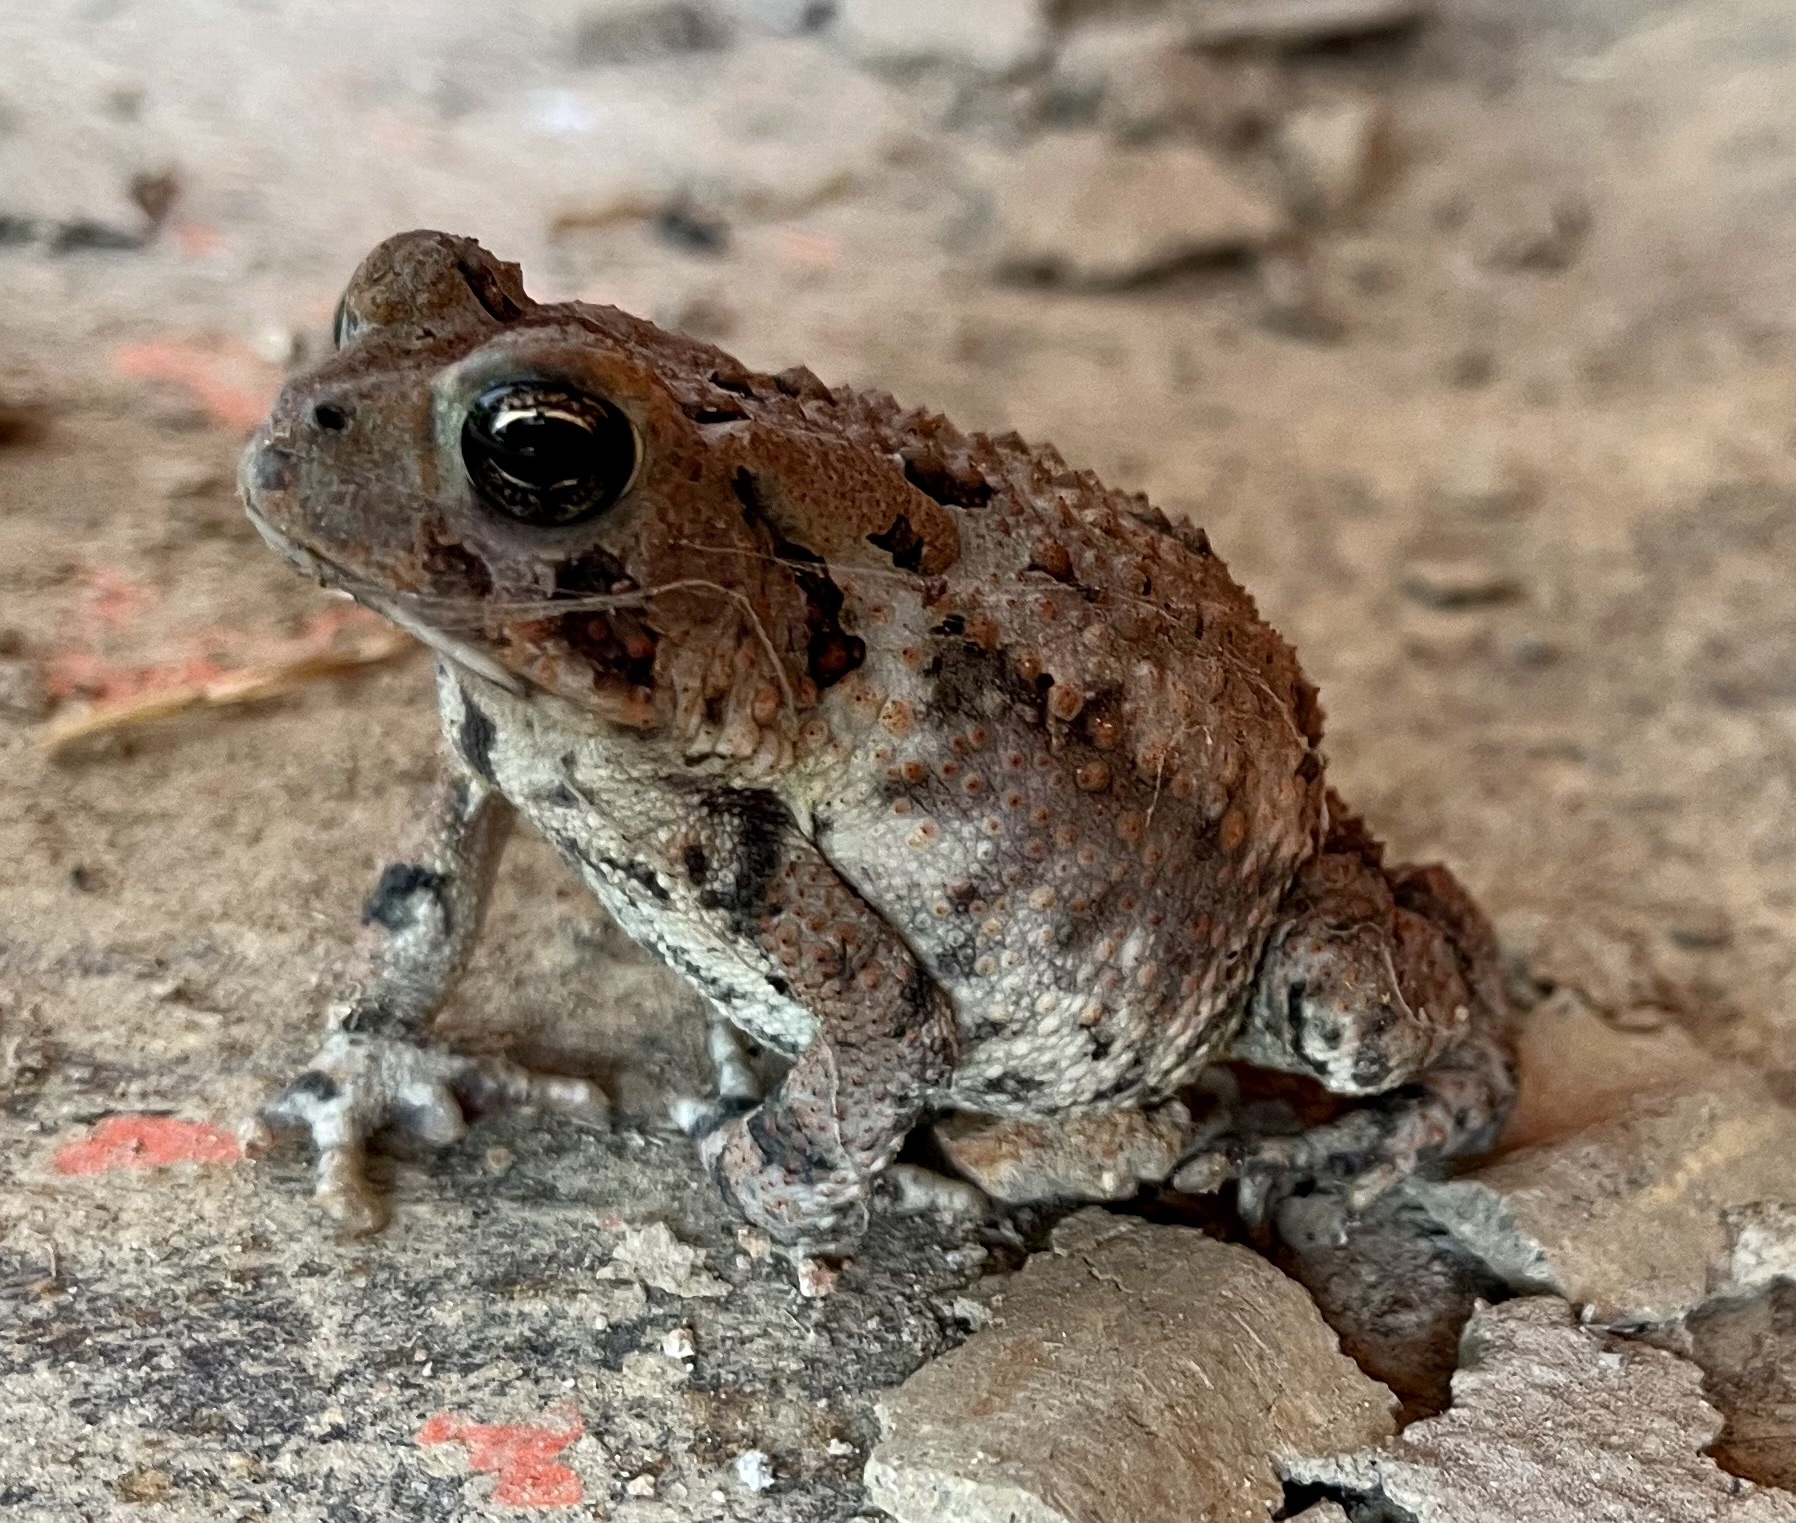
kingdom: Animalia
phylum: Chordata
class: Amphibia
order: Anura
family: Bufonidae
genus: Anaxyrus
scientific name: Anaxyrus fowleri
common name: Fowler's toad
